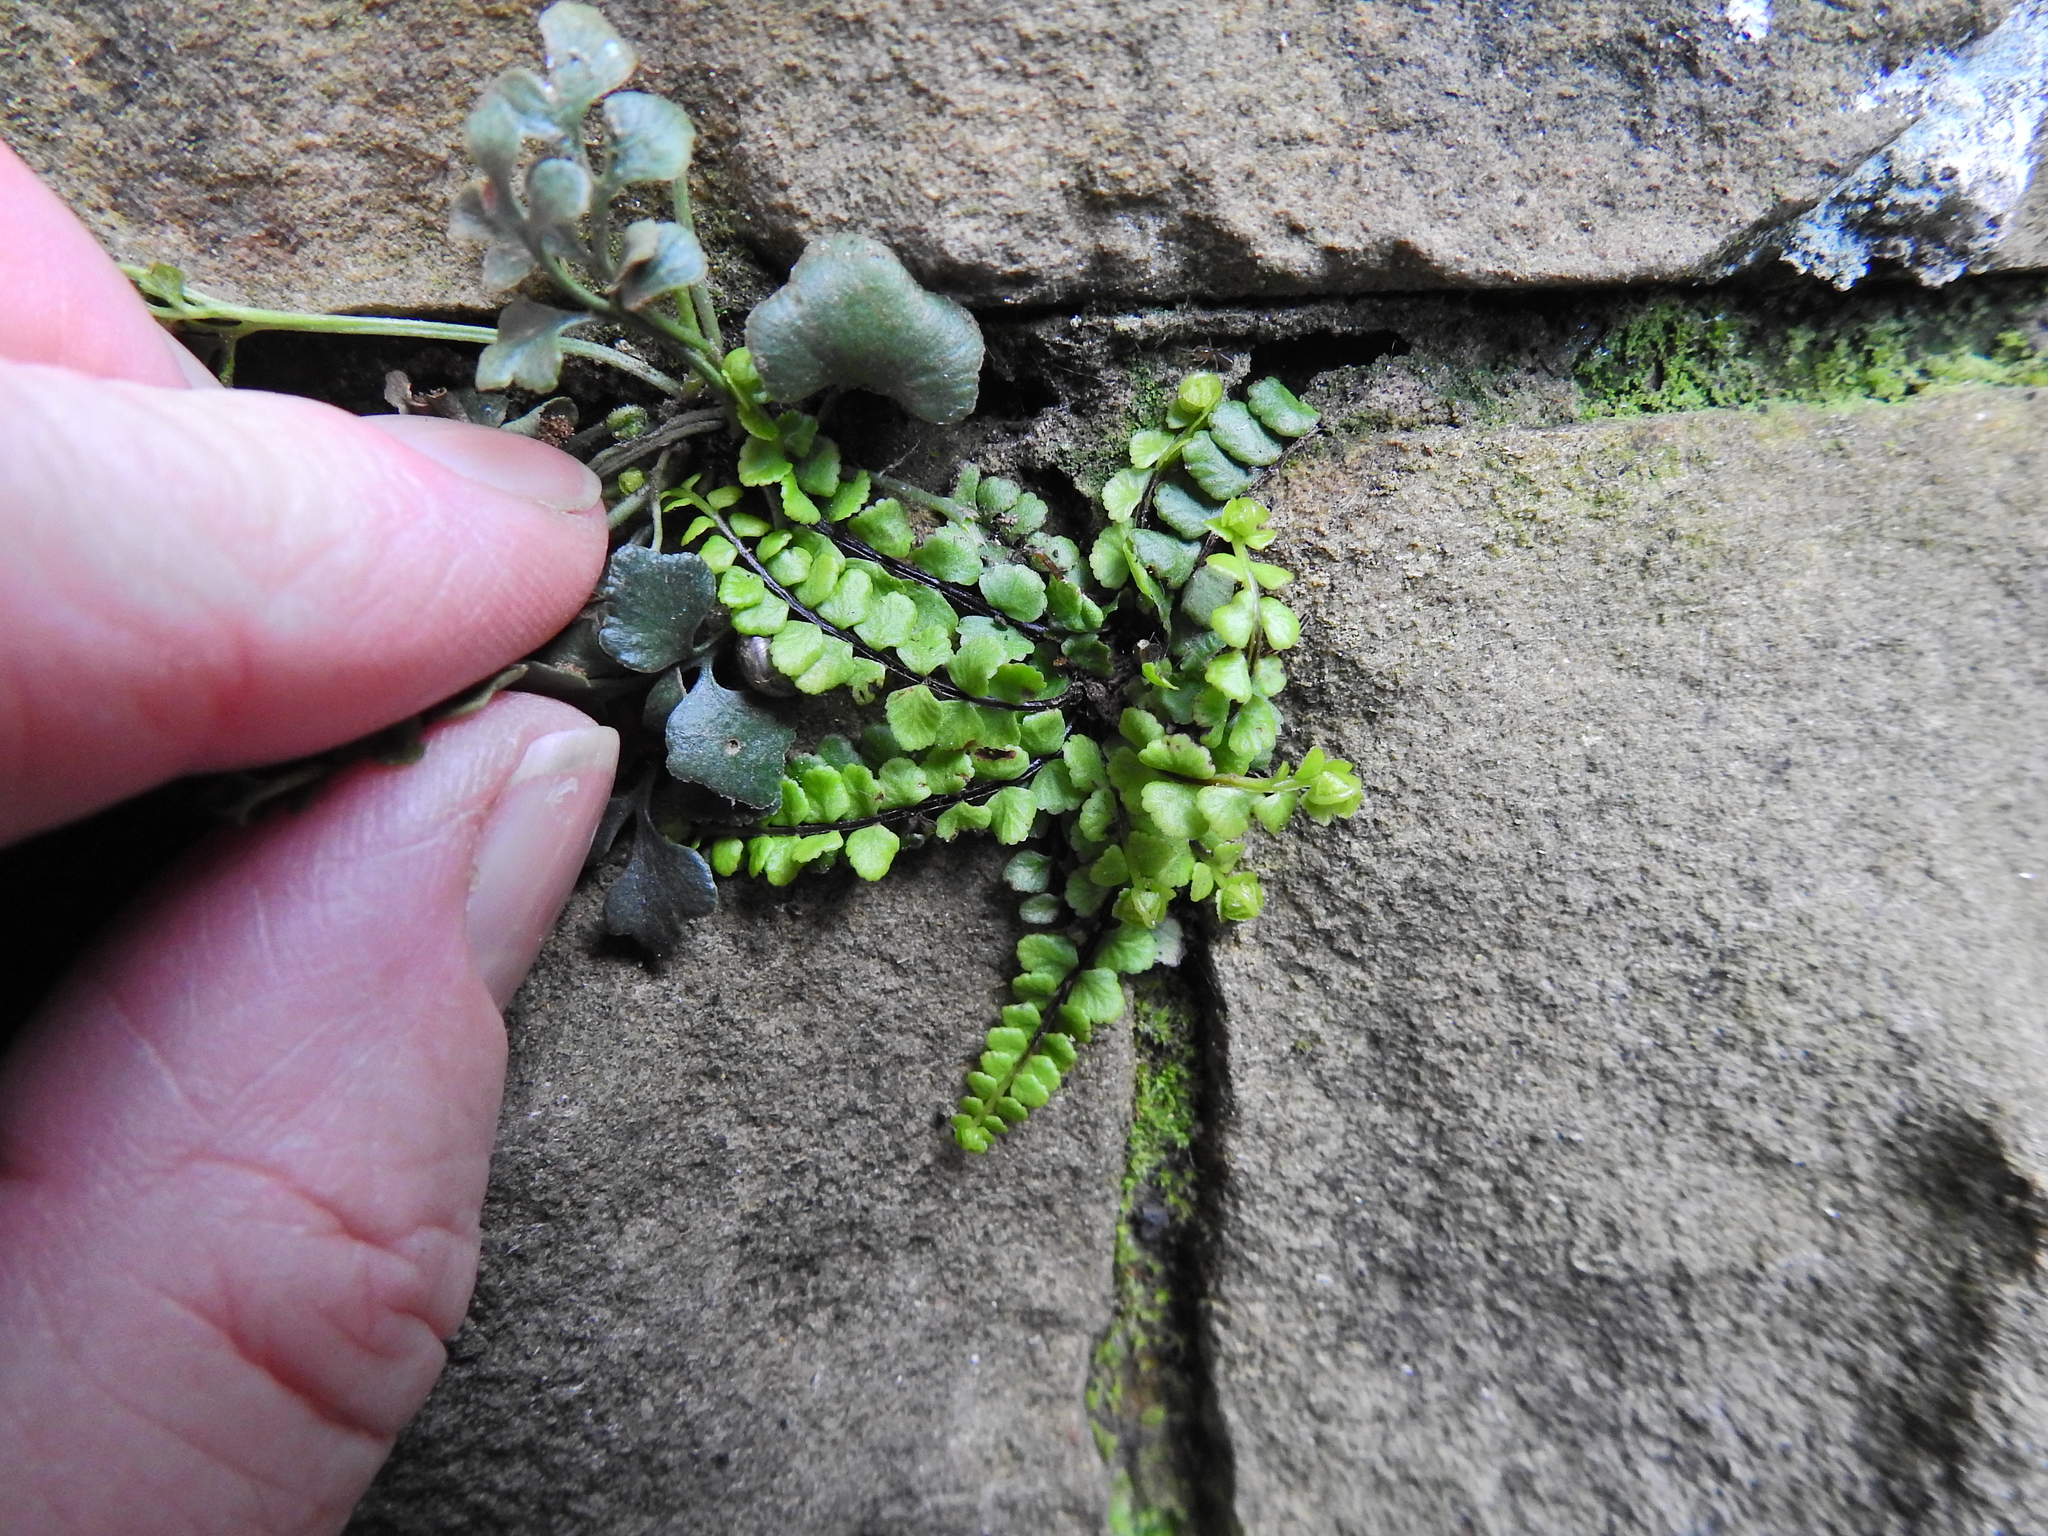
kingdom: Plantae
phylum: Tracheophyta
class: Polypodiopsida
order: Polypodiales
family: Aspleniaceae
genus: Asplenium
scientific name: Asplenium trichomanes
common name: Maidenhair spleenwort
